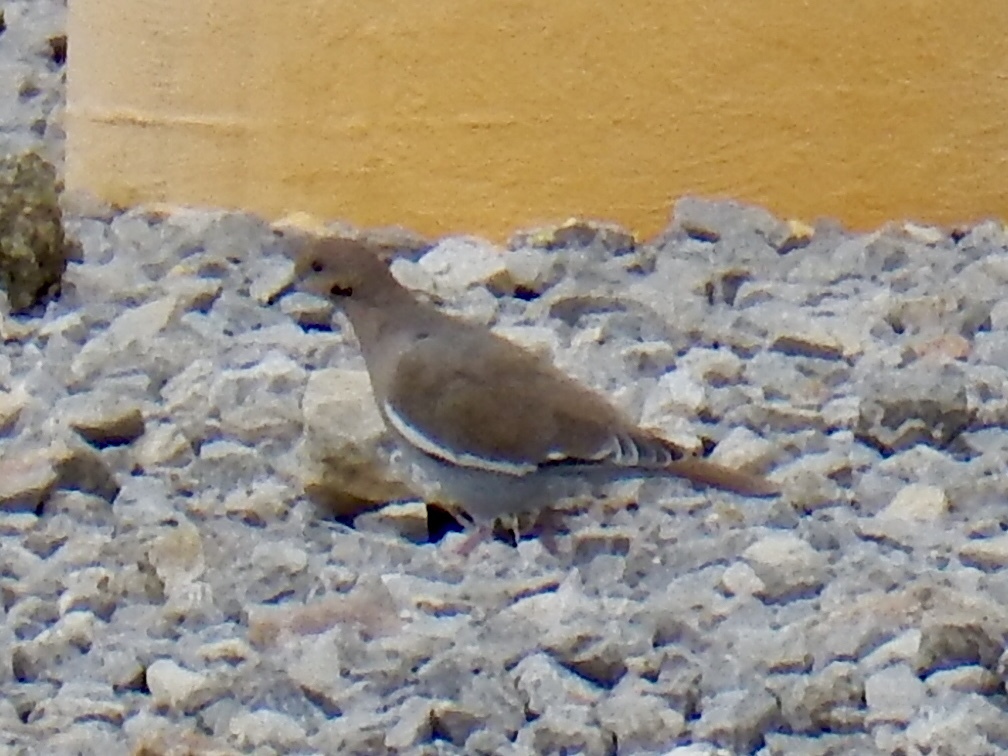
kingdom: Animalia
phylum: Chordata
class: Aves
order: Columbiformes
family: Columbidae
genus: Zenaida
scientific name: Zenaida asiatica
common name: White-winged dove
